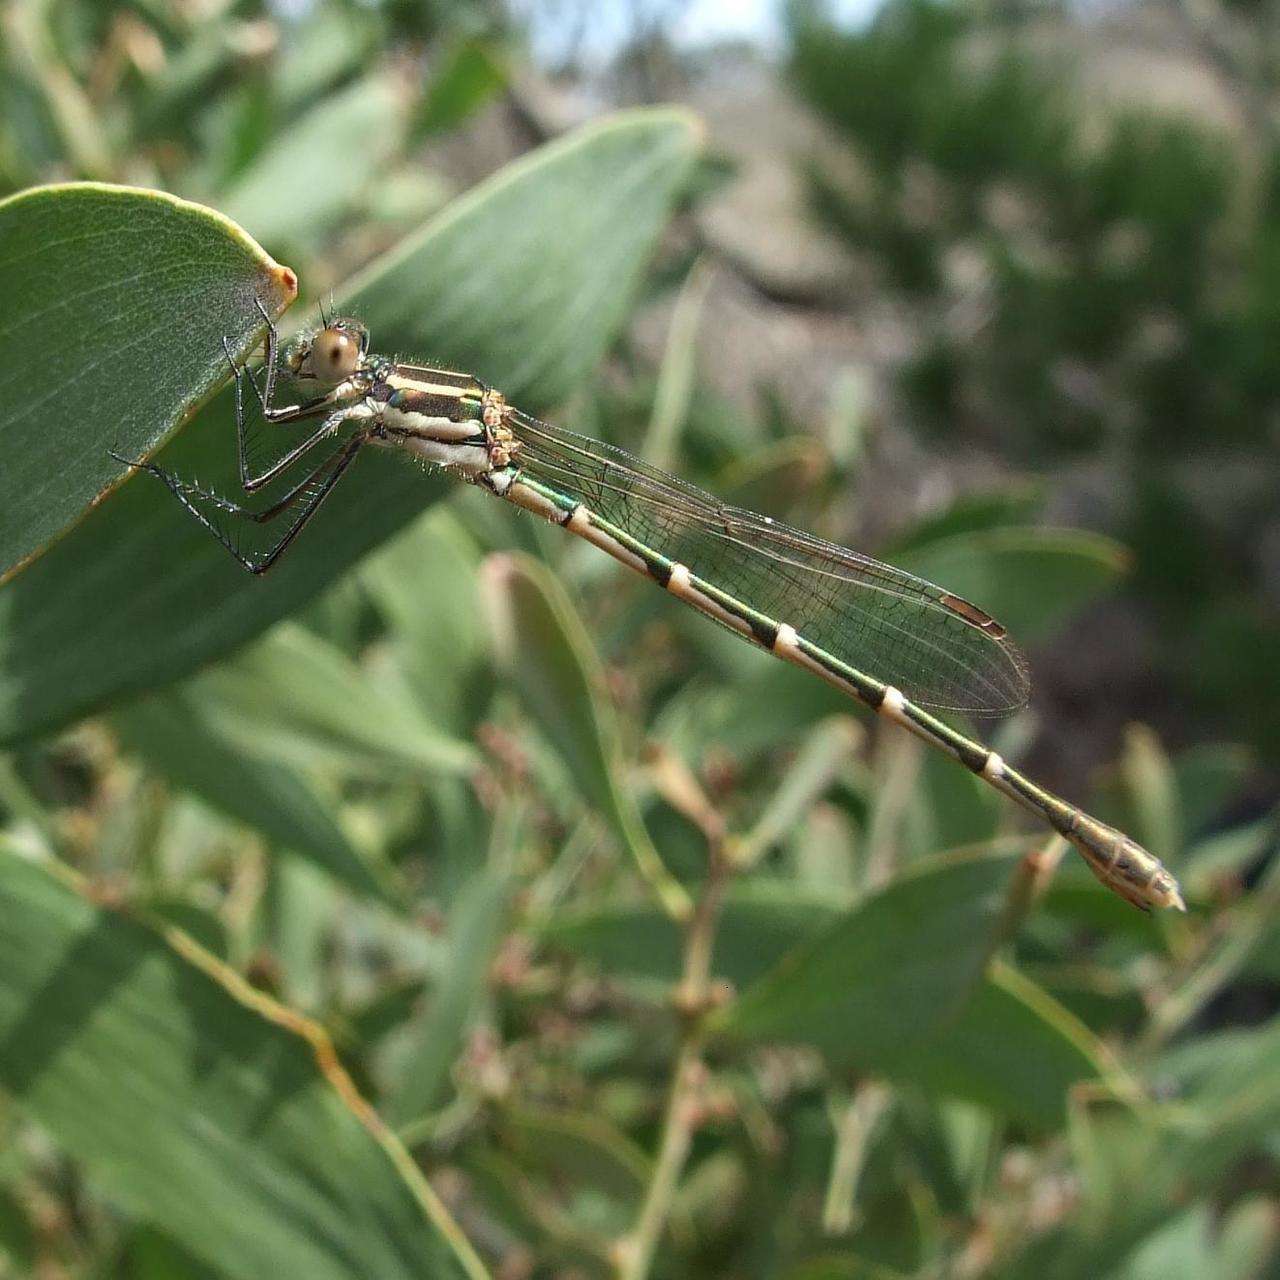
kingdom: Animalia
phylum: Arthropoda
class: Insecta
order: Odonata
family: Lestidae
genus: Austrolestes
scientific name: Austrolestes annulosus
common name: Blue ringtail
